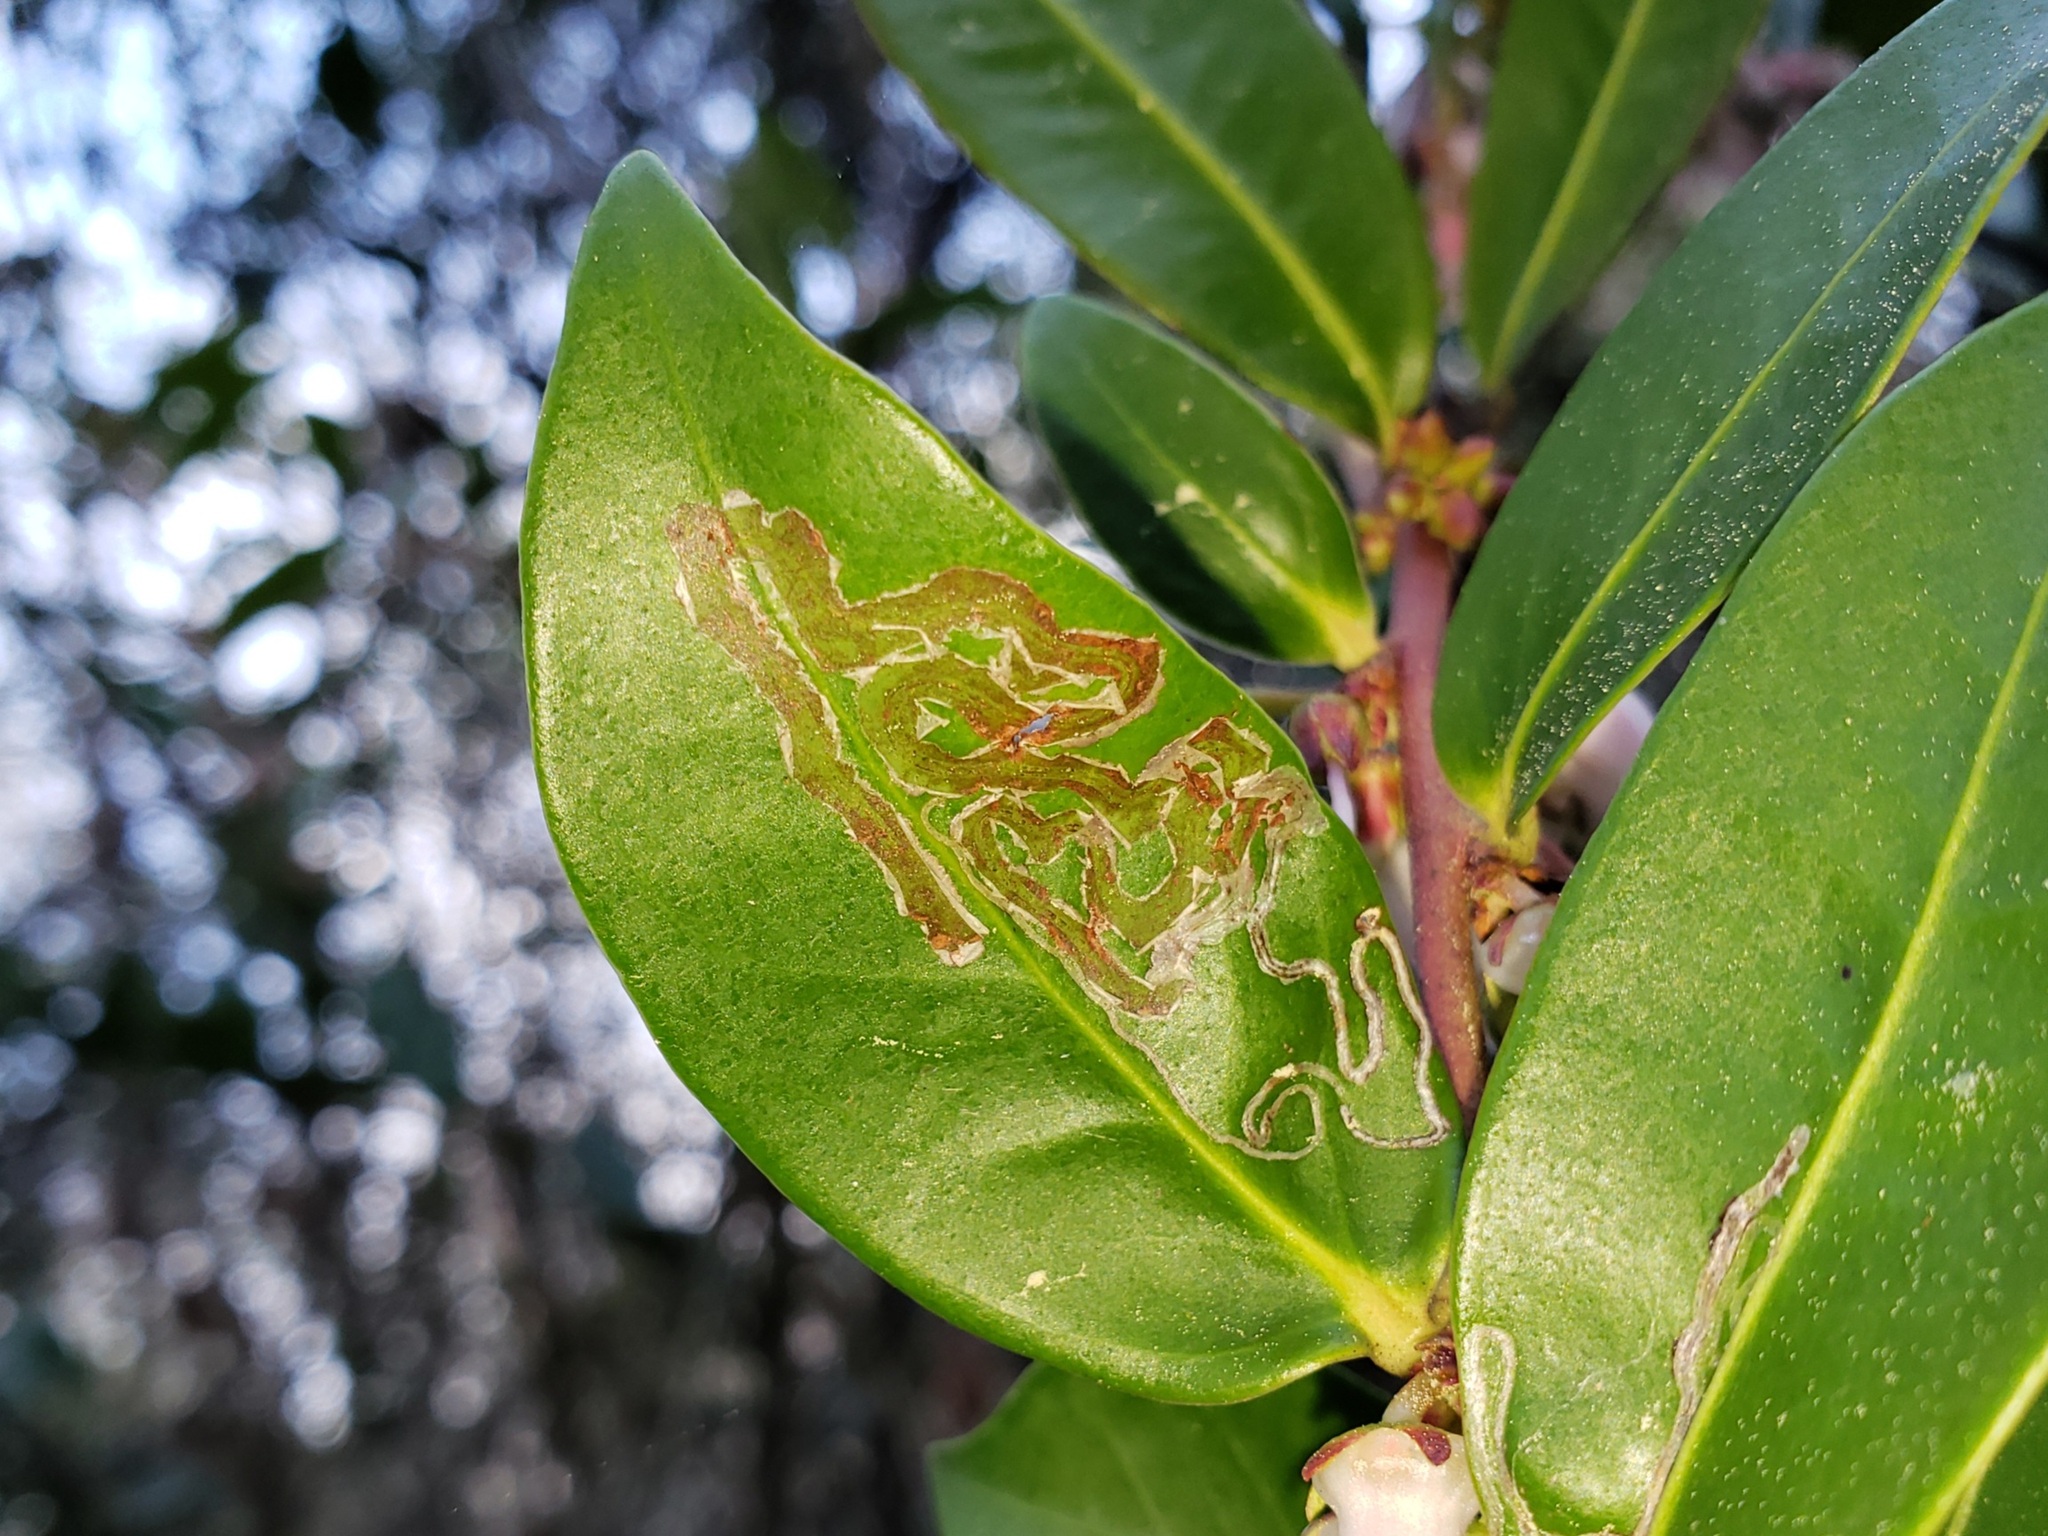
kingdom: Plantae
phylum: Tracheophyta
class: Magnoliopsida
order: Ericales
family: Ericaceae
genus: Lyonia
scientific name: Lyonia lucida
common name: Fetterbush
